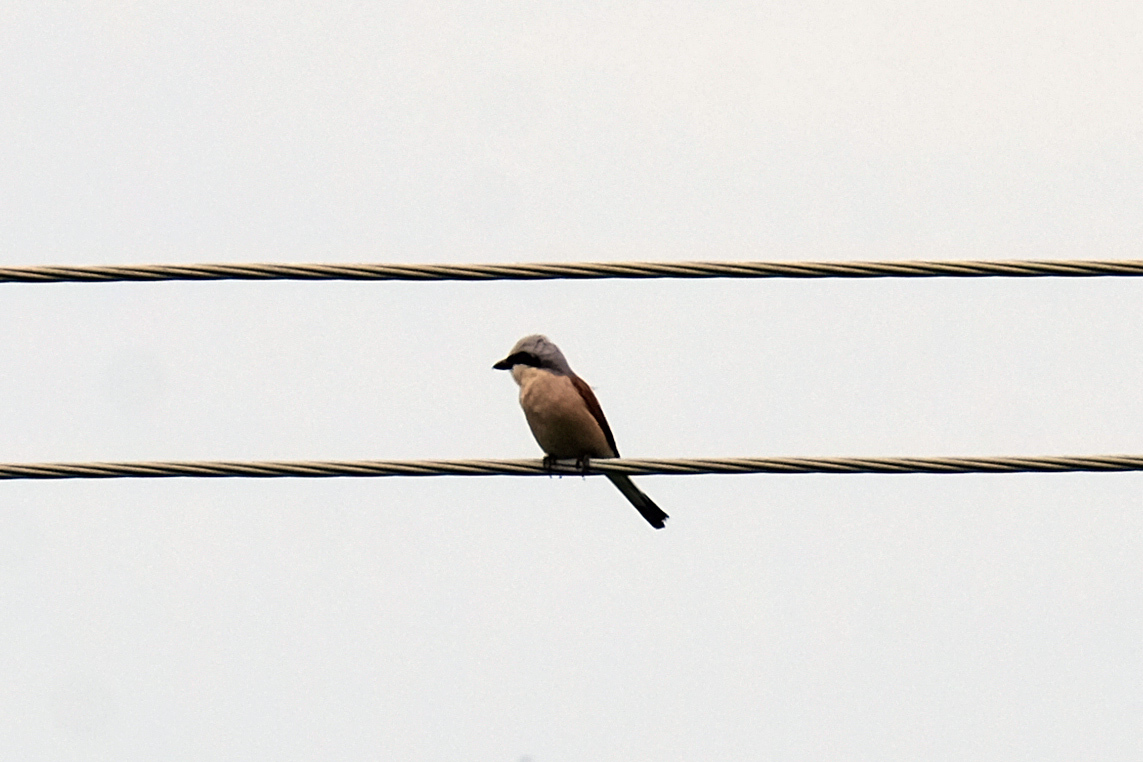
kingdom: Animalia
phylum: Chordata
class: Aves
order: Passeriformes
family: Laniidae
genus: Lanius
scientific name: Lanius collurio
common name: Red-backed shrike
